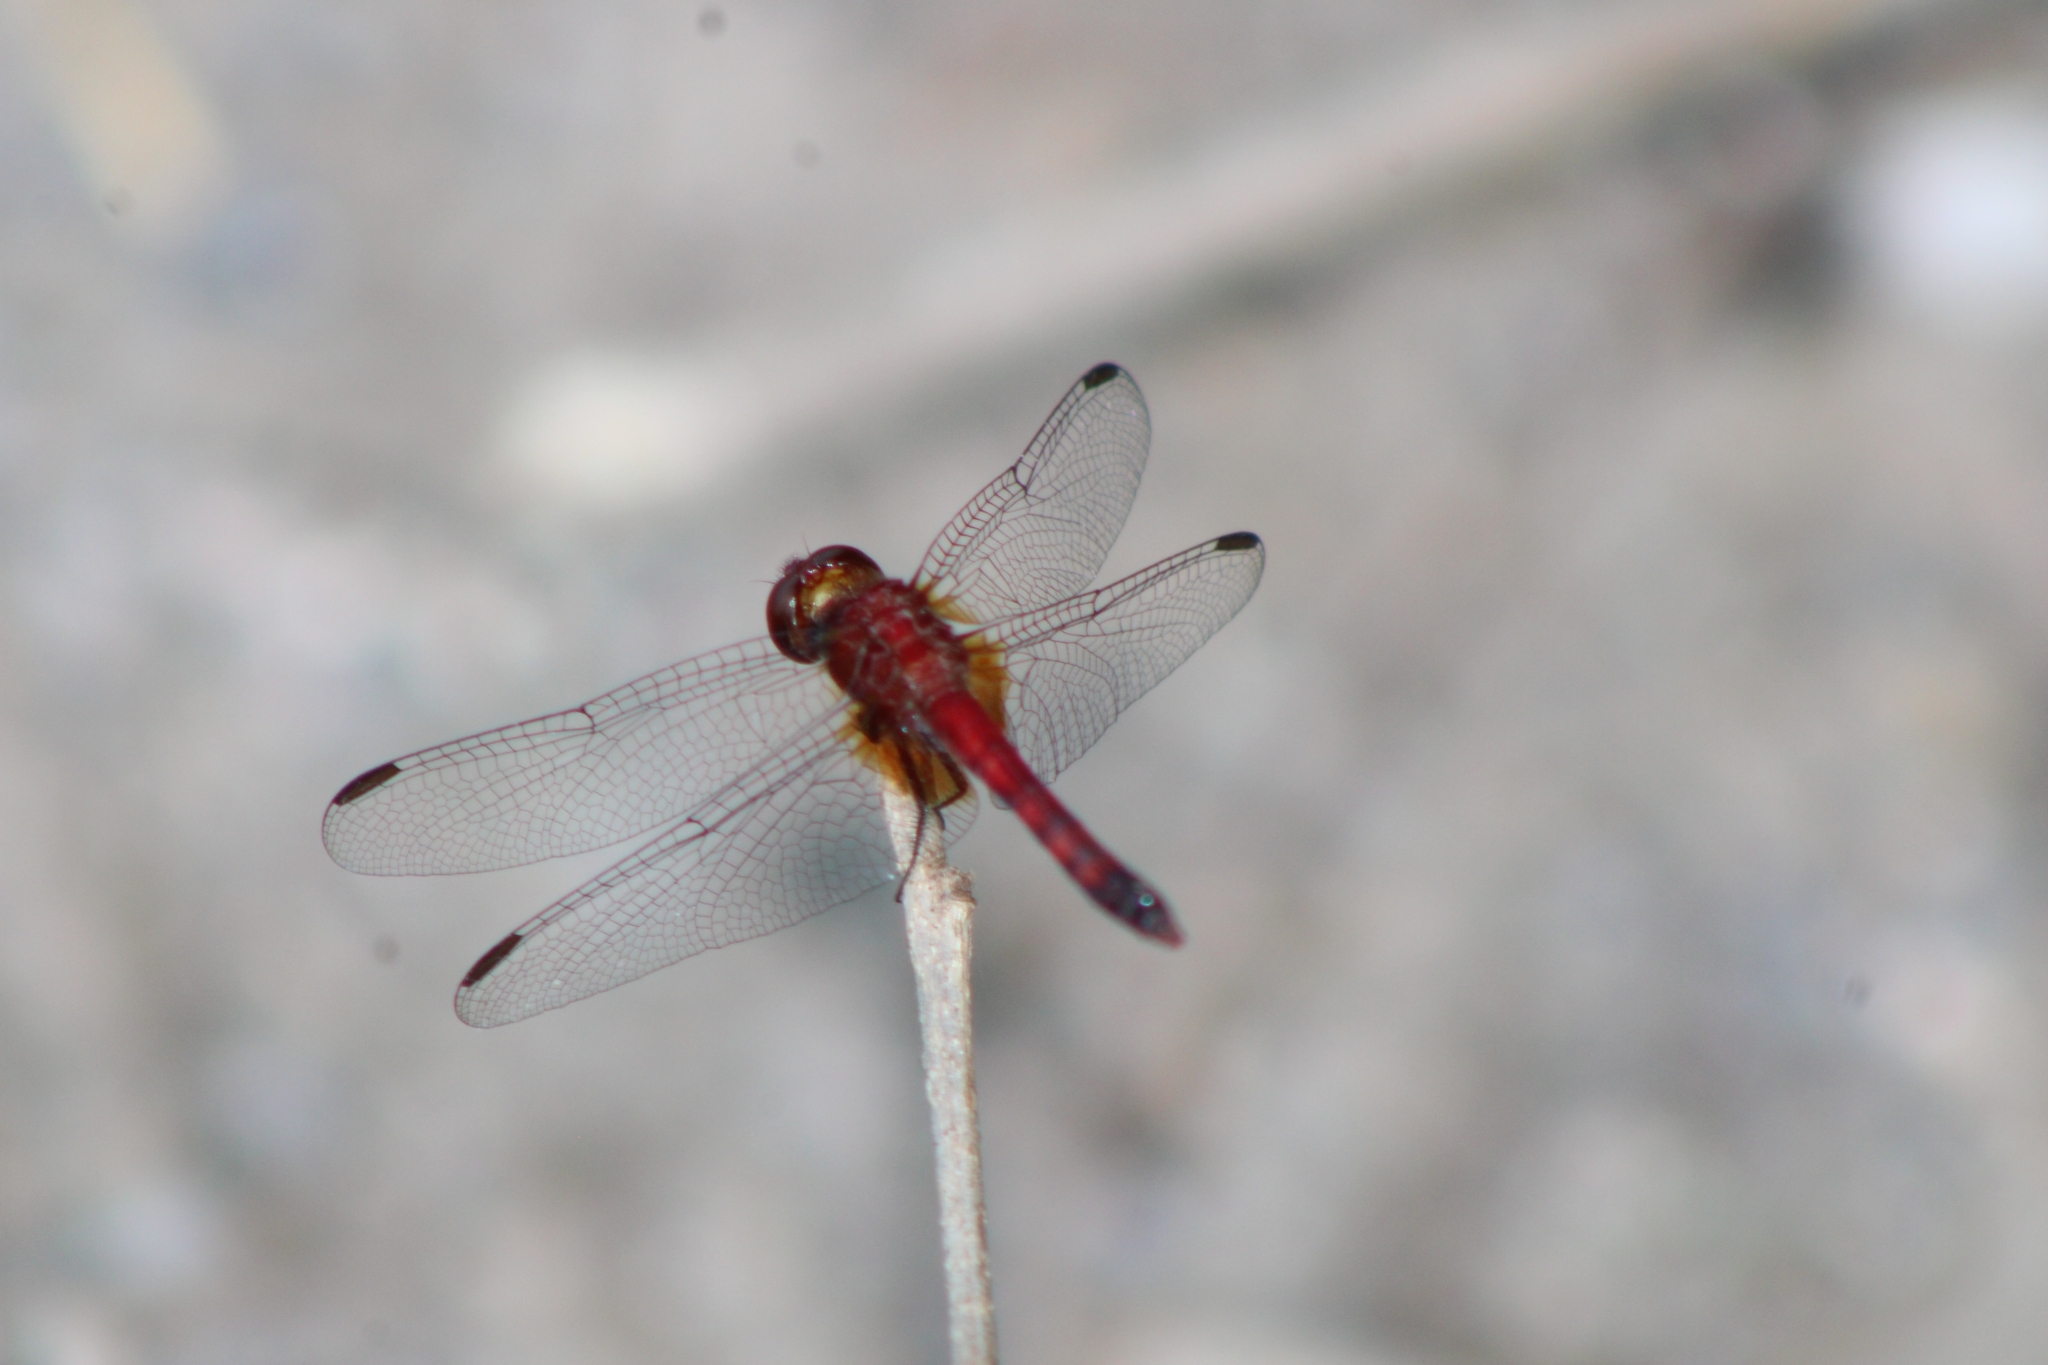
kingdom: Animalia
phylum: Arthropoda
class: Insecta
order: Odonata
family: Libellulidae
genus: Erythrodiplax
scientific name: Erythrodiplax fusca
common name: Red-faced dragonlet
